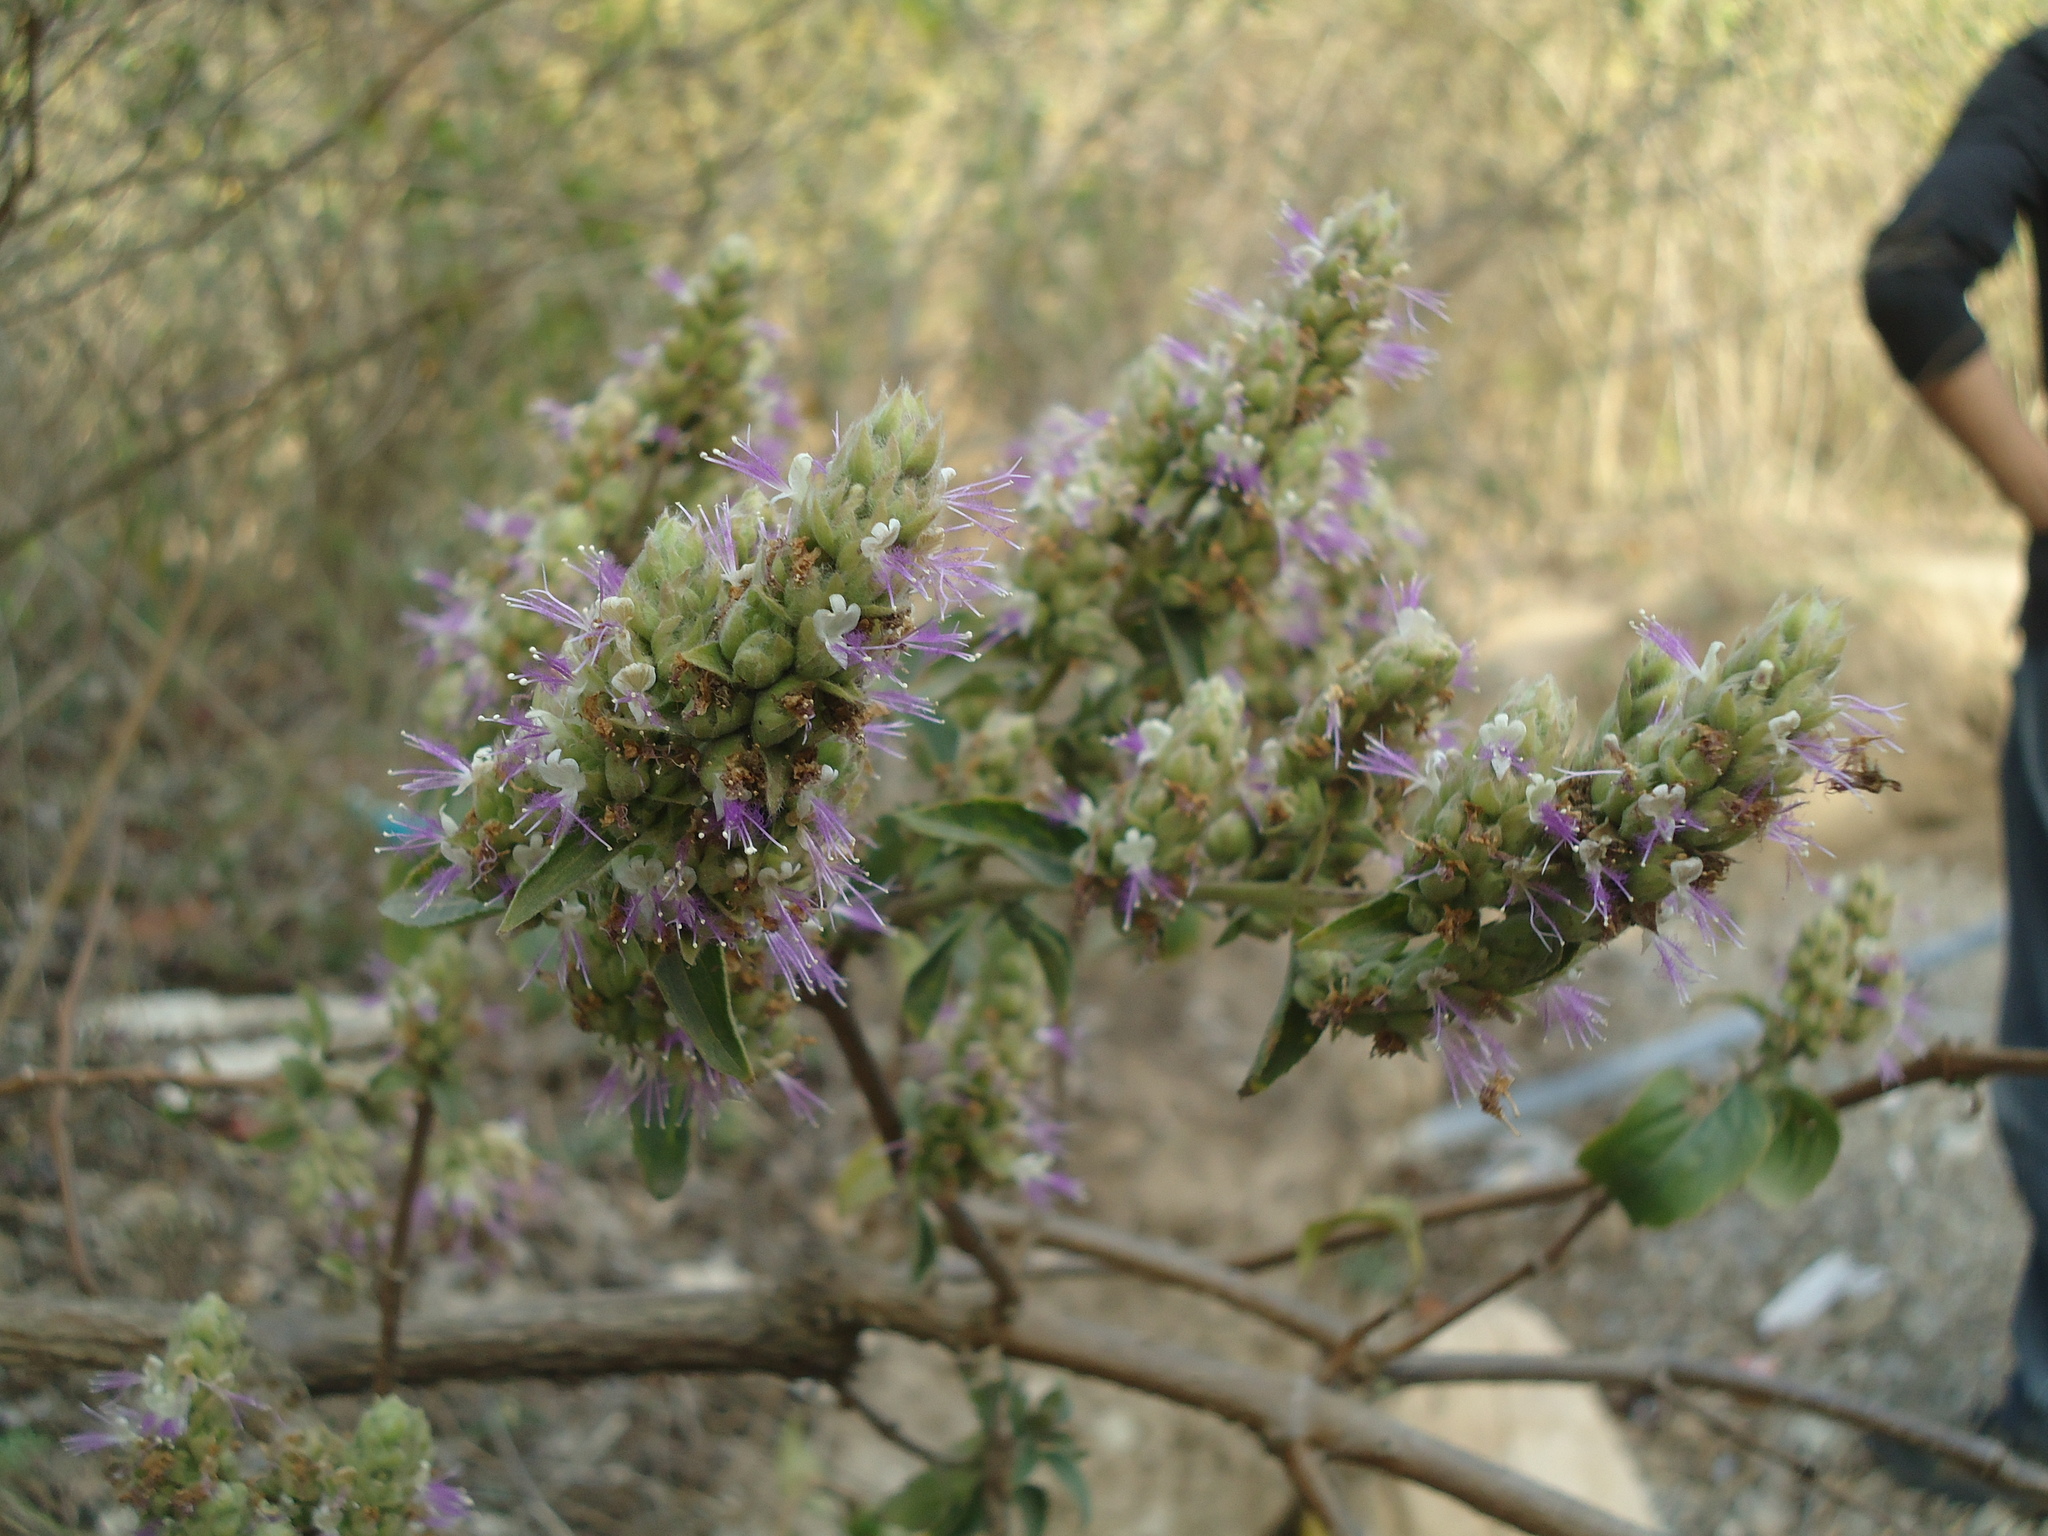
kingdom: Plantae
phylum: Tracheophyta
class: Magnoliopsida
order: Lamiales
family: Lamiaceae
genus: Pogostemon
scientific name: Pogostemon benghalensis
